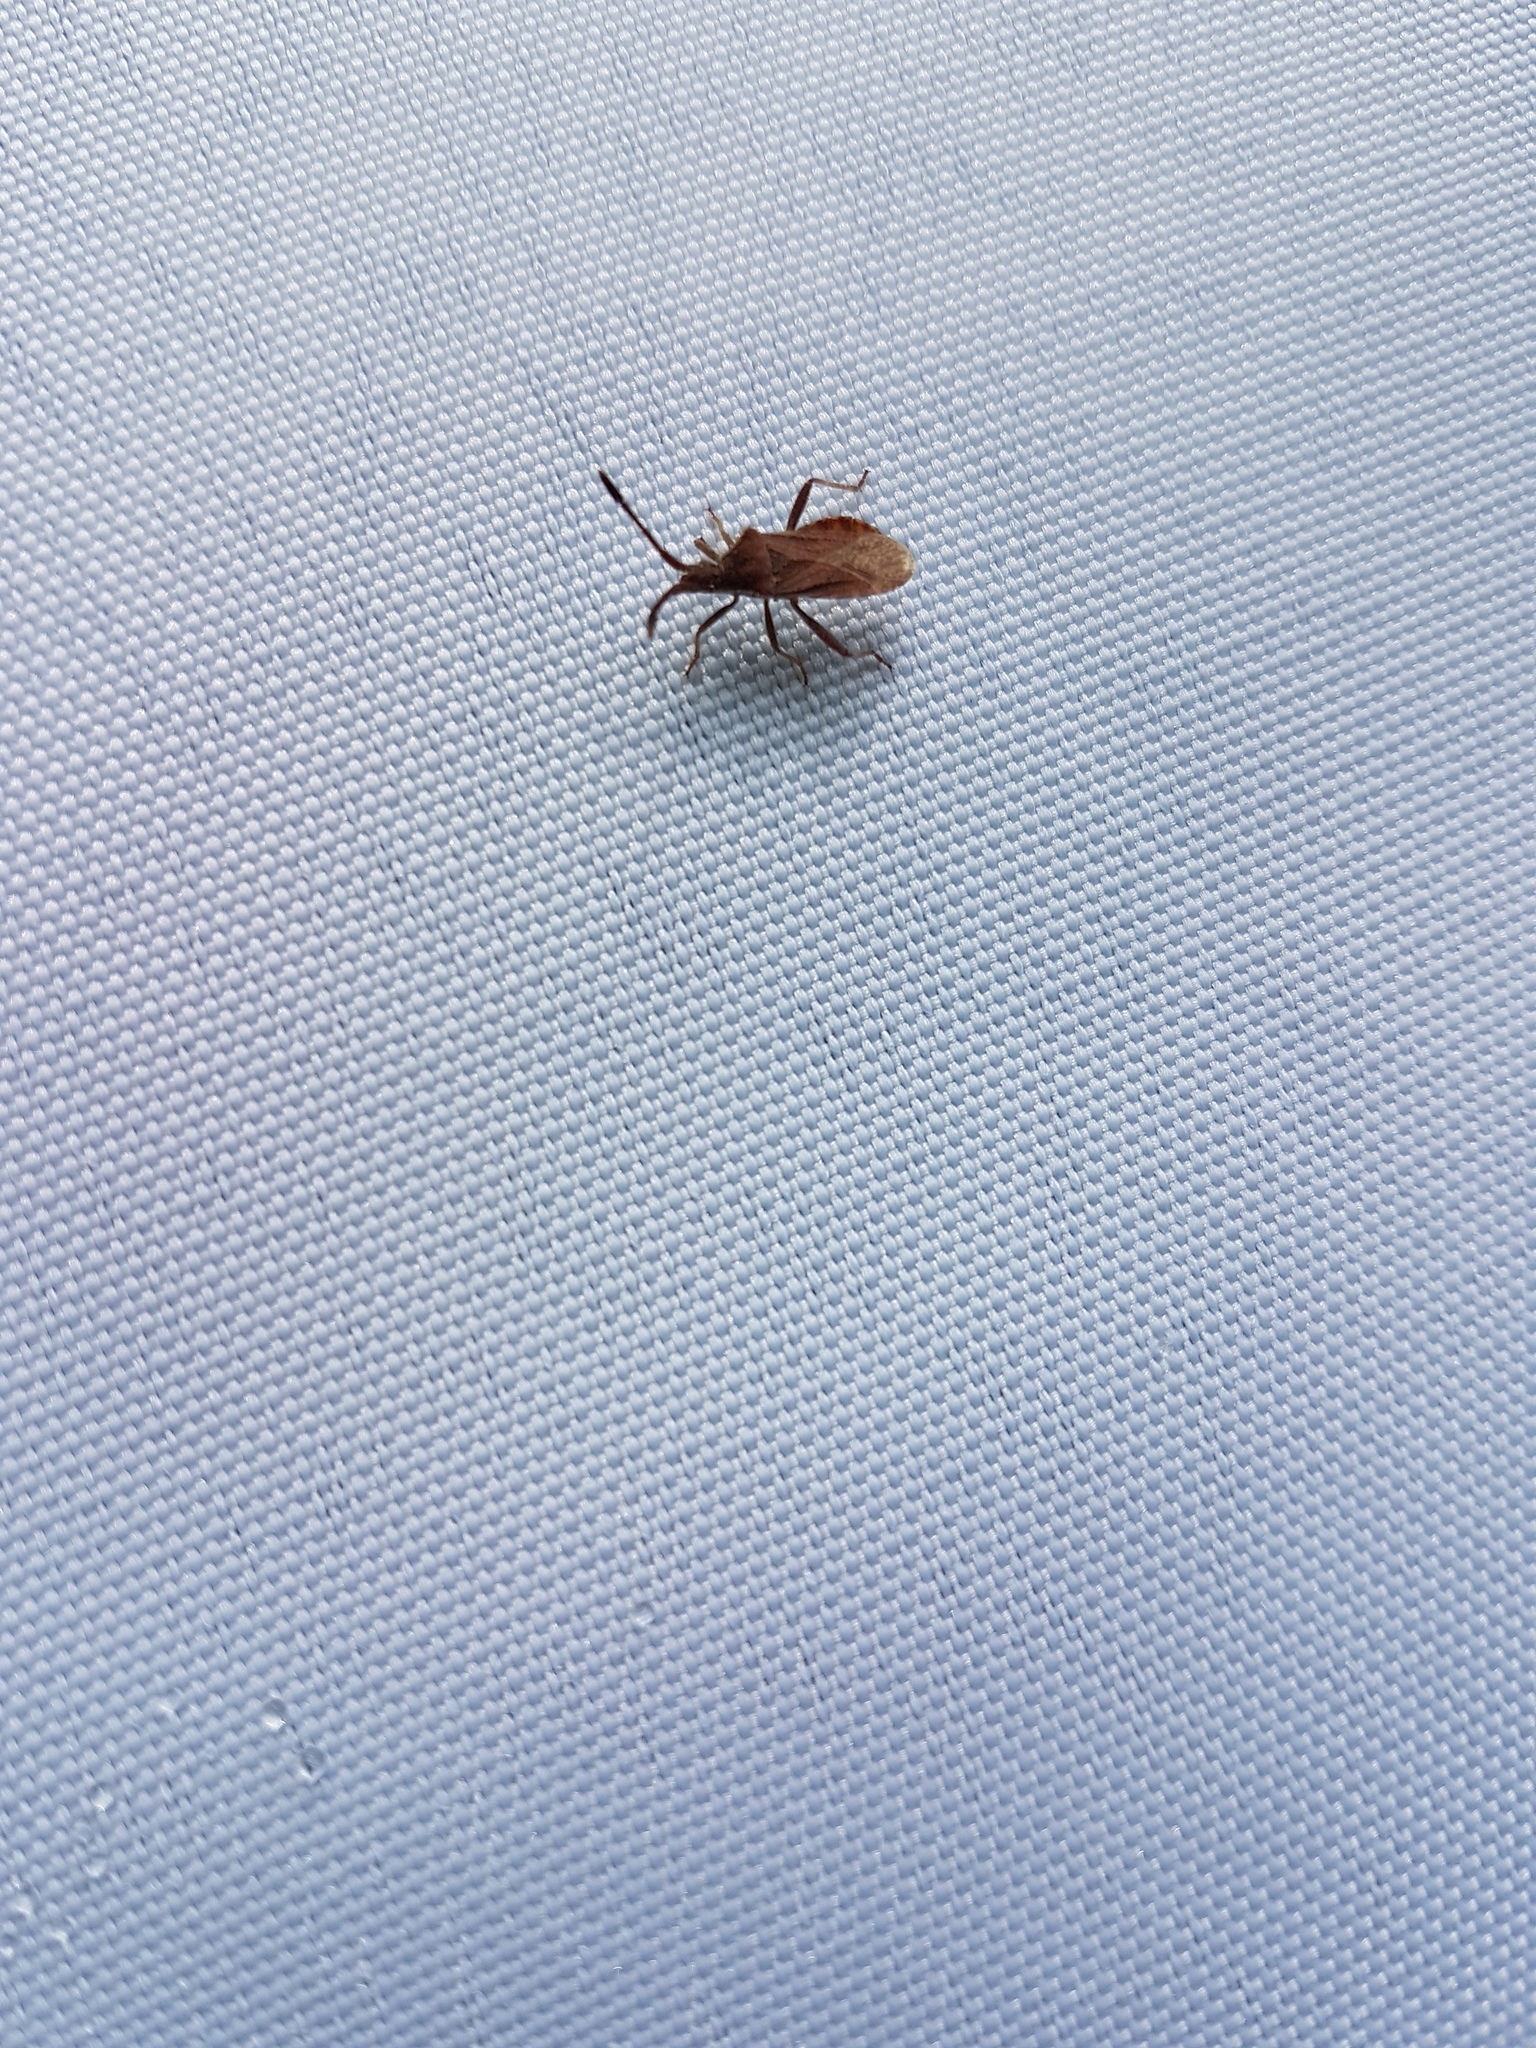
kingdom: Animalia
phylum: Arthropoda
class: Insecta
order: Hemiptera
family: Coreidae
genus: Coriomeris
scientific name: Coriomeris denticulatus
